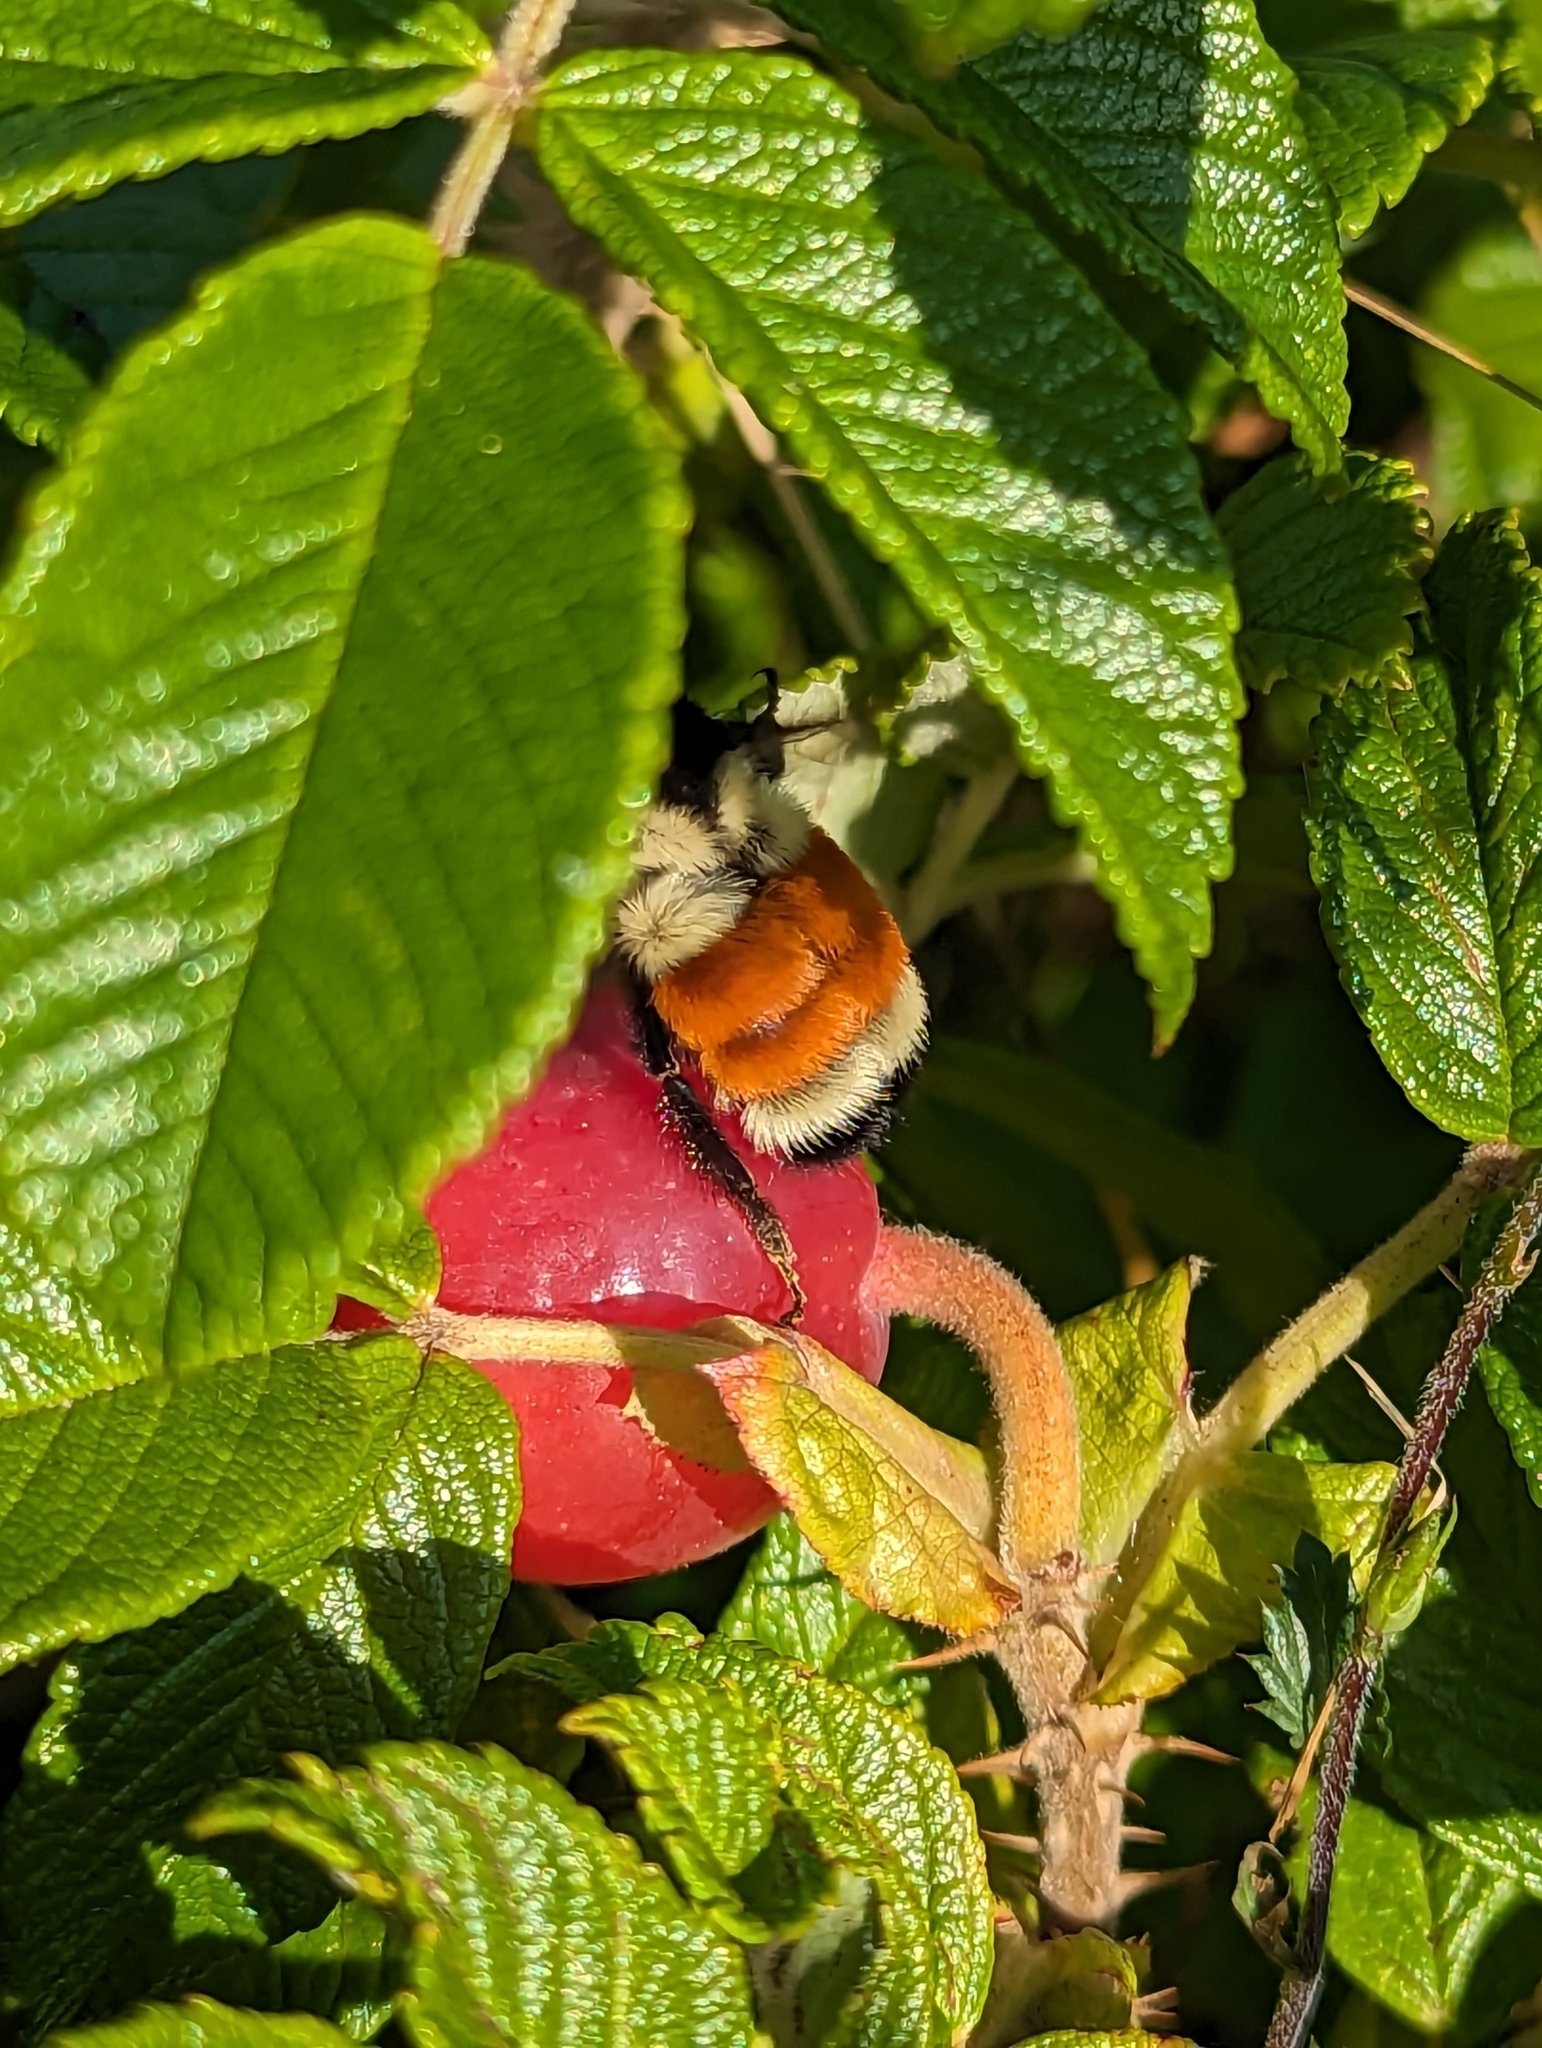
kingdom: Animalia
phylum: Arthropoda
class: Insecta
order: Hymenoptera
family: Apidae
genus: Bombus
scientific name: Bombus ternarius
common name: Tri-colored bumble bee
